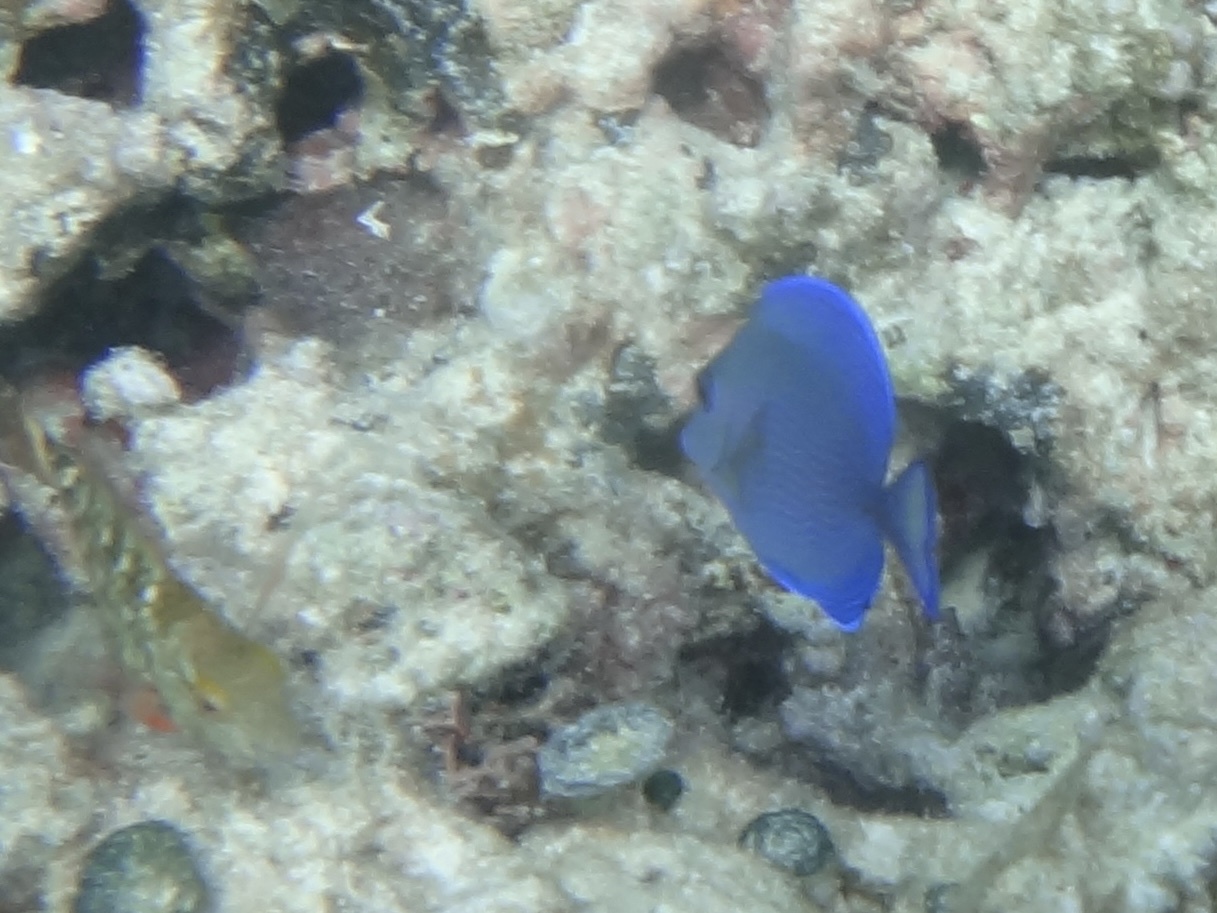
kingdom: Animalia
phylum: Chordata
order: Perciformes
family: Acanthuridae
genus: Acanthurus
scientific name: Acanthurus coeruleus
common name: Blue tang
